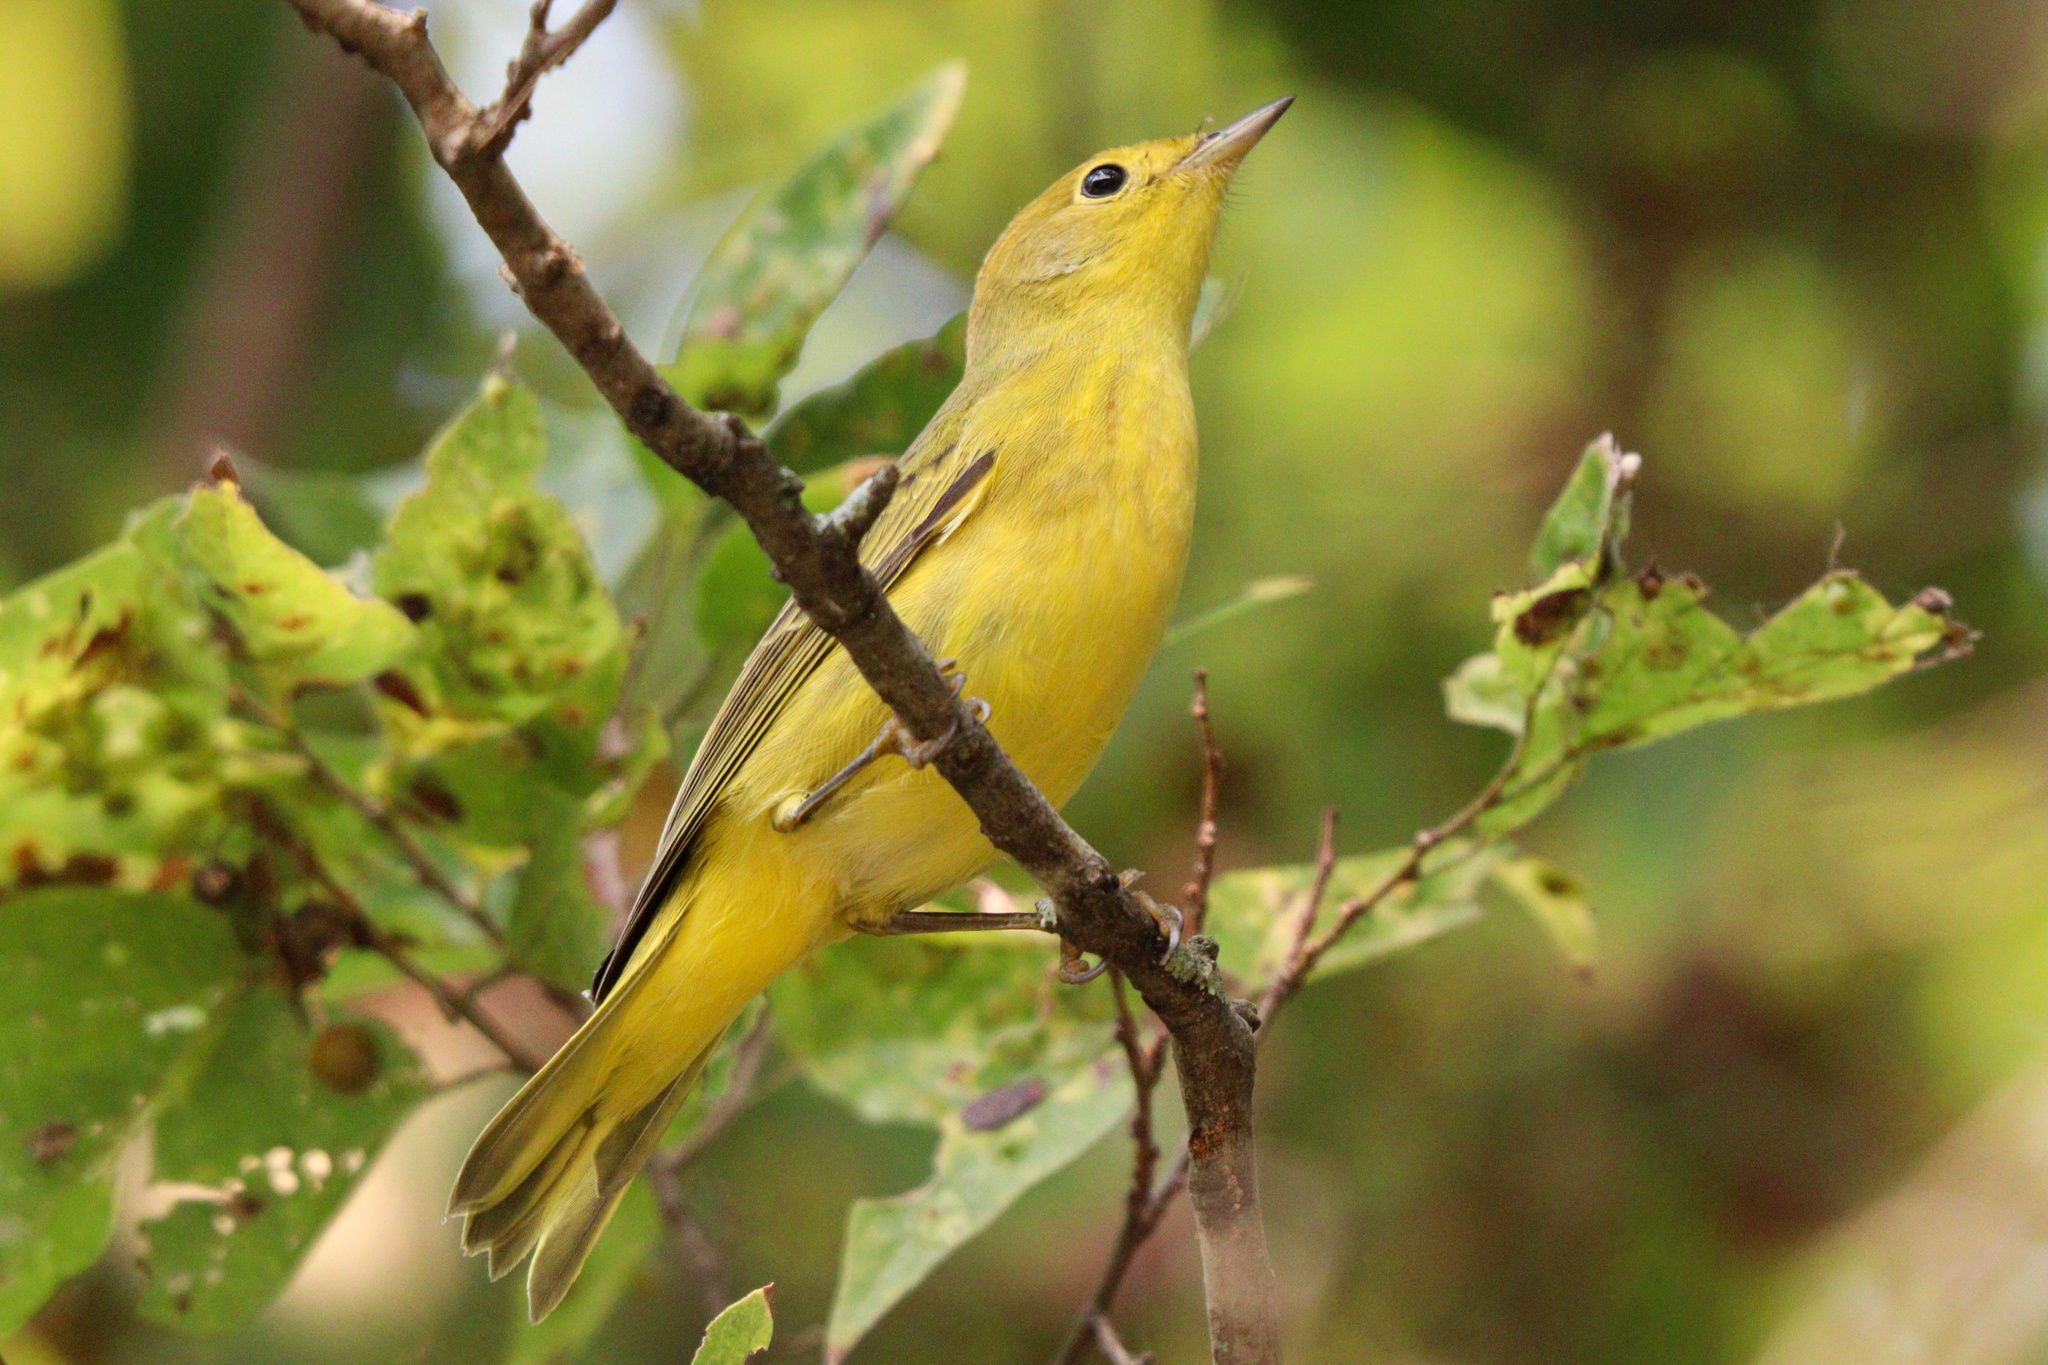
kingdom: Animalia
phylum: Chordata
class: Aves
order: Passeriformes
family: Parulidae
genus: Setophaga
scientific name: Setophaga petechia
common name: Yellow warbler
